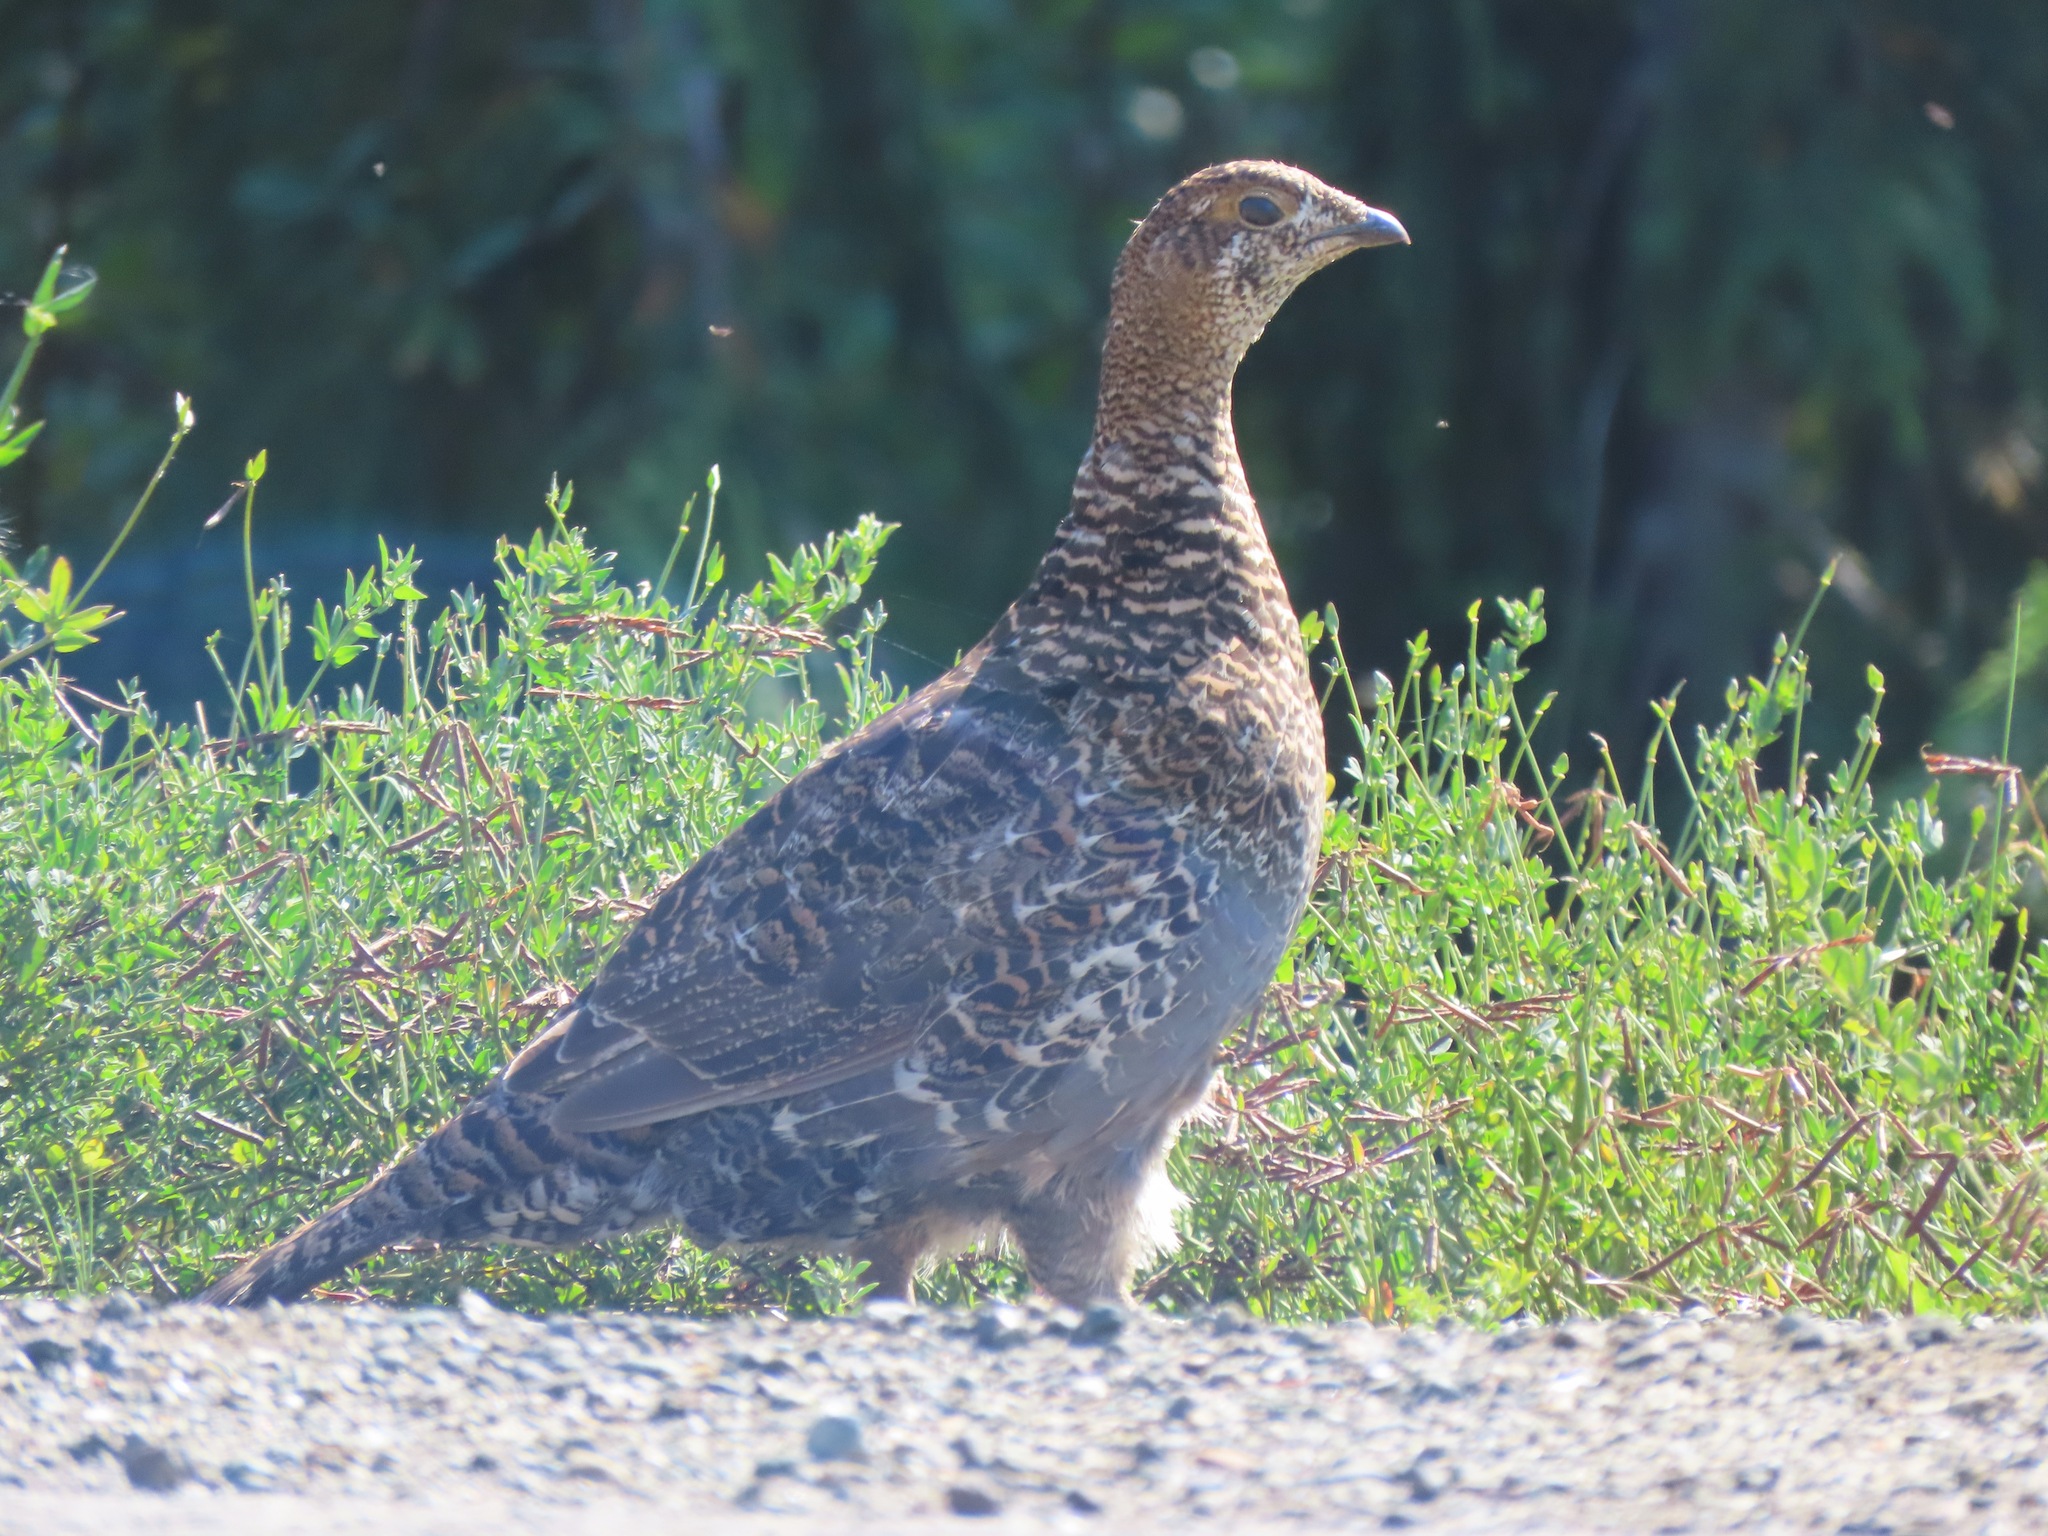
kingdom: Animalia
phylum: Chordata
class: Aves
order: Galliformes
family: Phasianidae
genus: Dendragapus
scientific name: Dendragapus fuliginosus
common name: Sooty grouse
